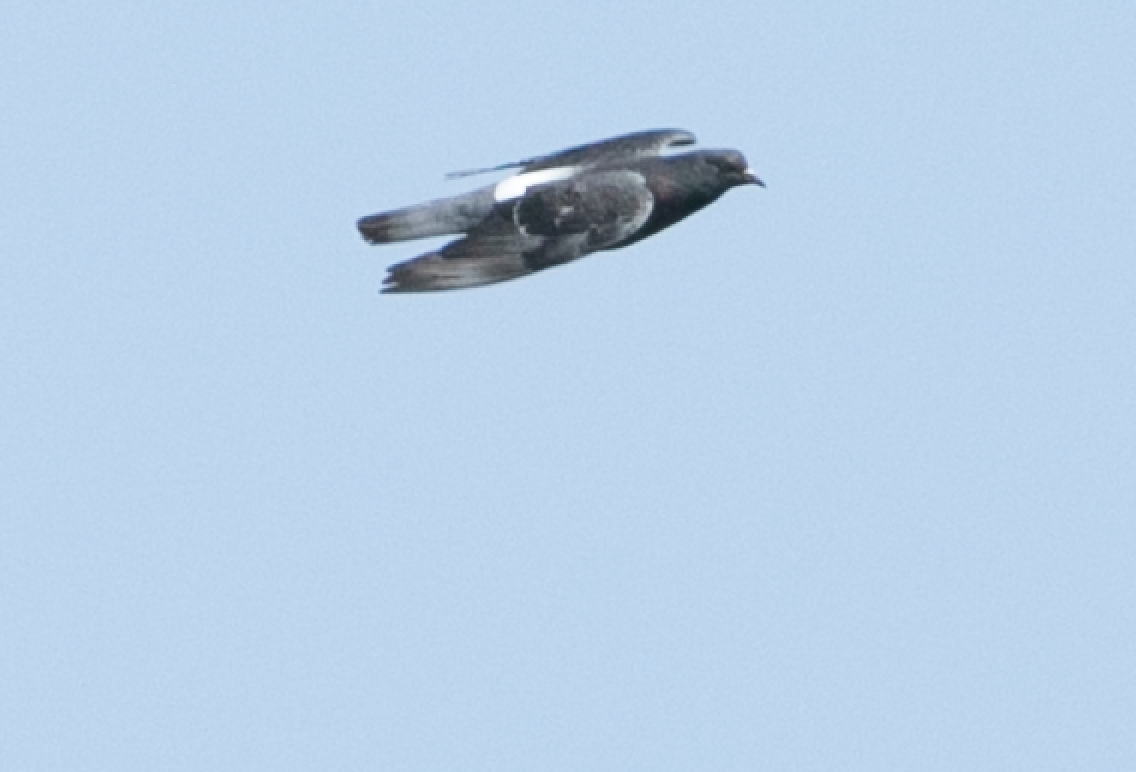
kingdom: Animalia
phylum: Chordata
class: Aves
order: Columbiformes
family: Columbidae
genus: Columba
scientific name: Columba livia
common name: Rock pigeon
